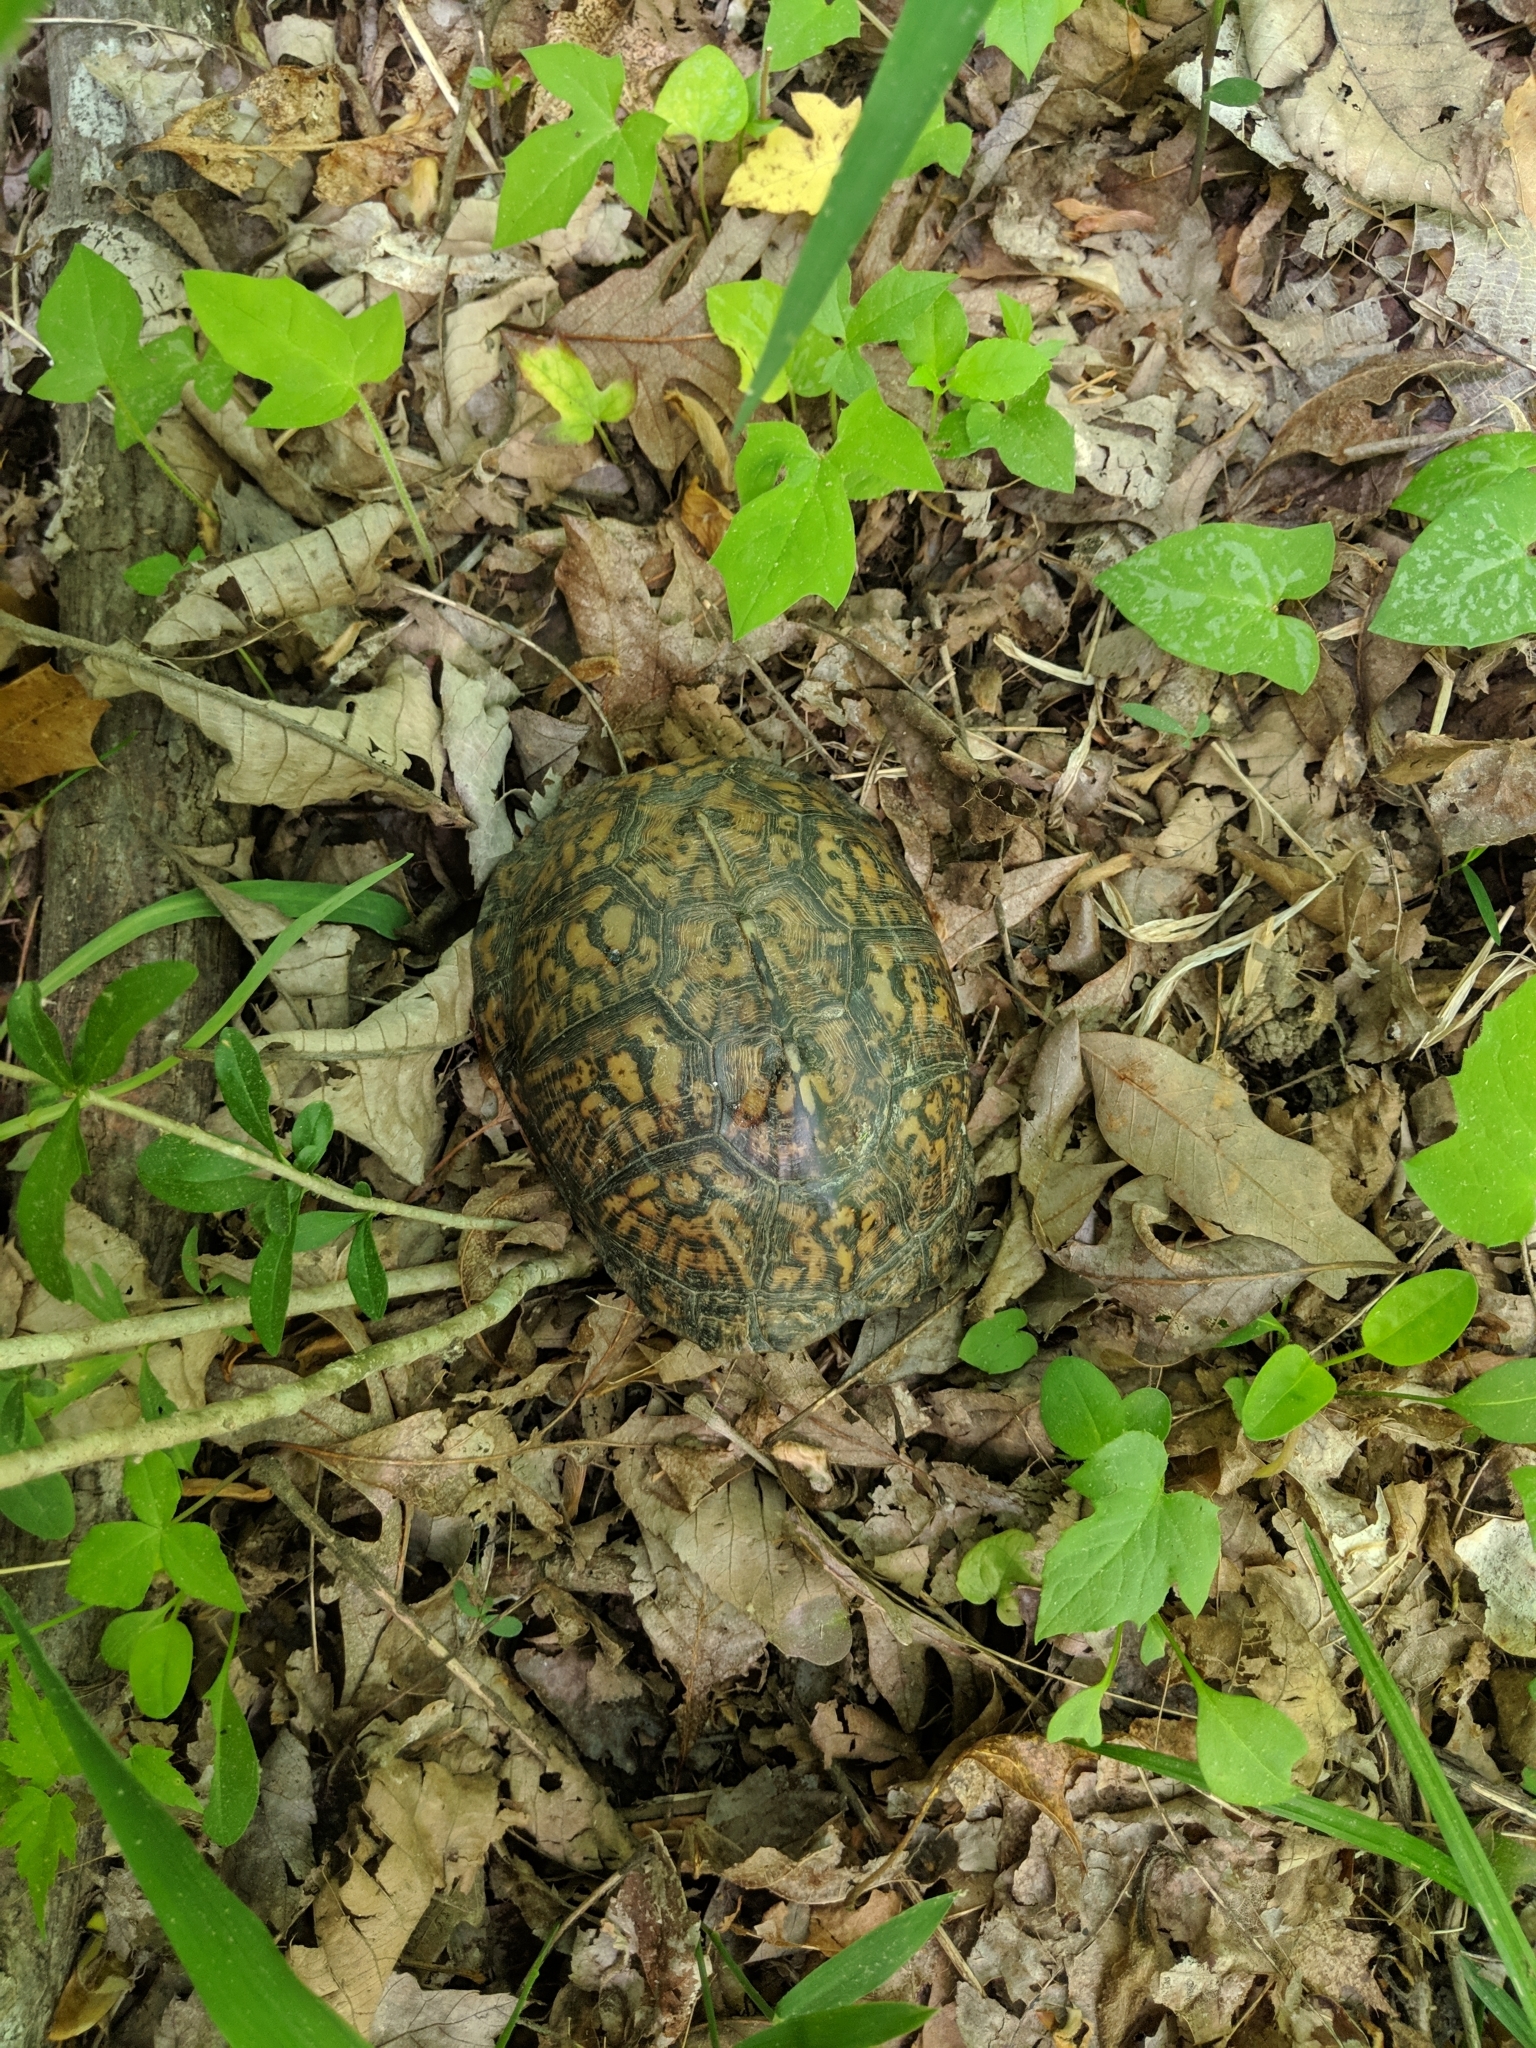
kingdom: Animalia
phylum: Chordata
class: Testudines
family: Emydidae
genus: Terrapene
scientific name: Terrapene carolina
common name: Common box turtle
